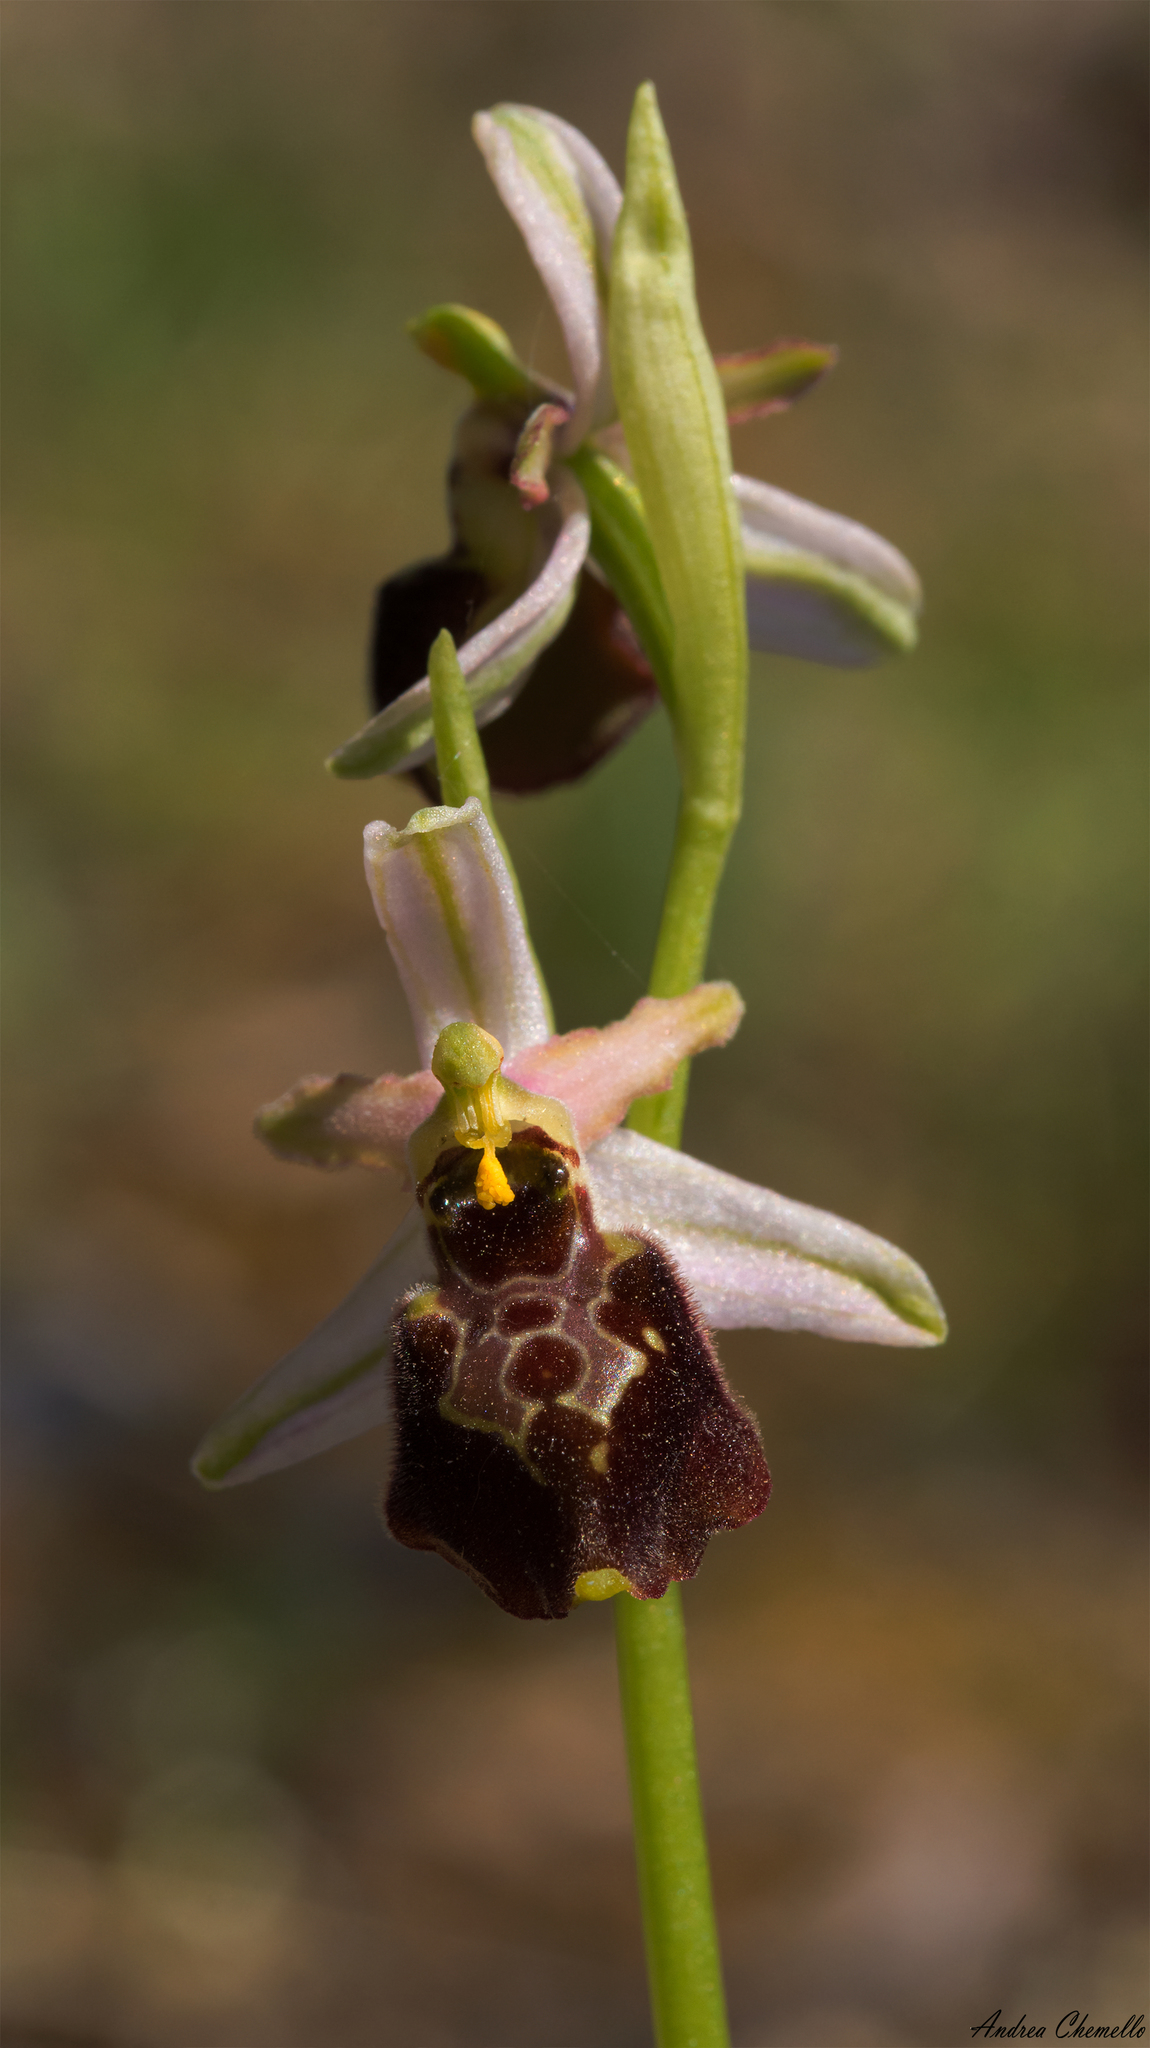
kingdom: Plantae
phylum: Tracheophyta
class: Liliopsida
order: Asparagales
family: Orchidaceae
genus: Ophrys
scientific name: Ophrys arachnitiformis
